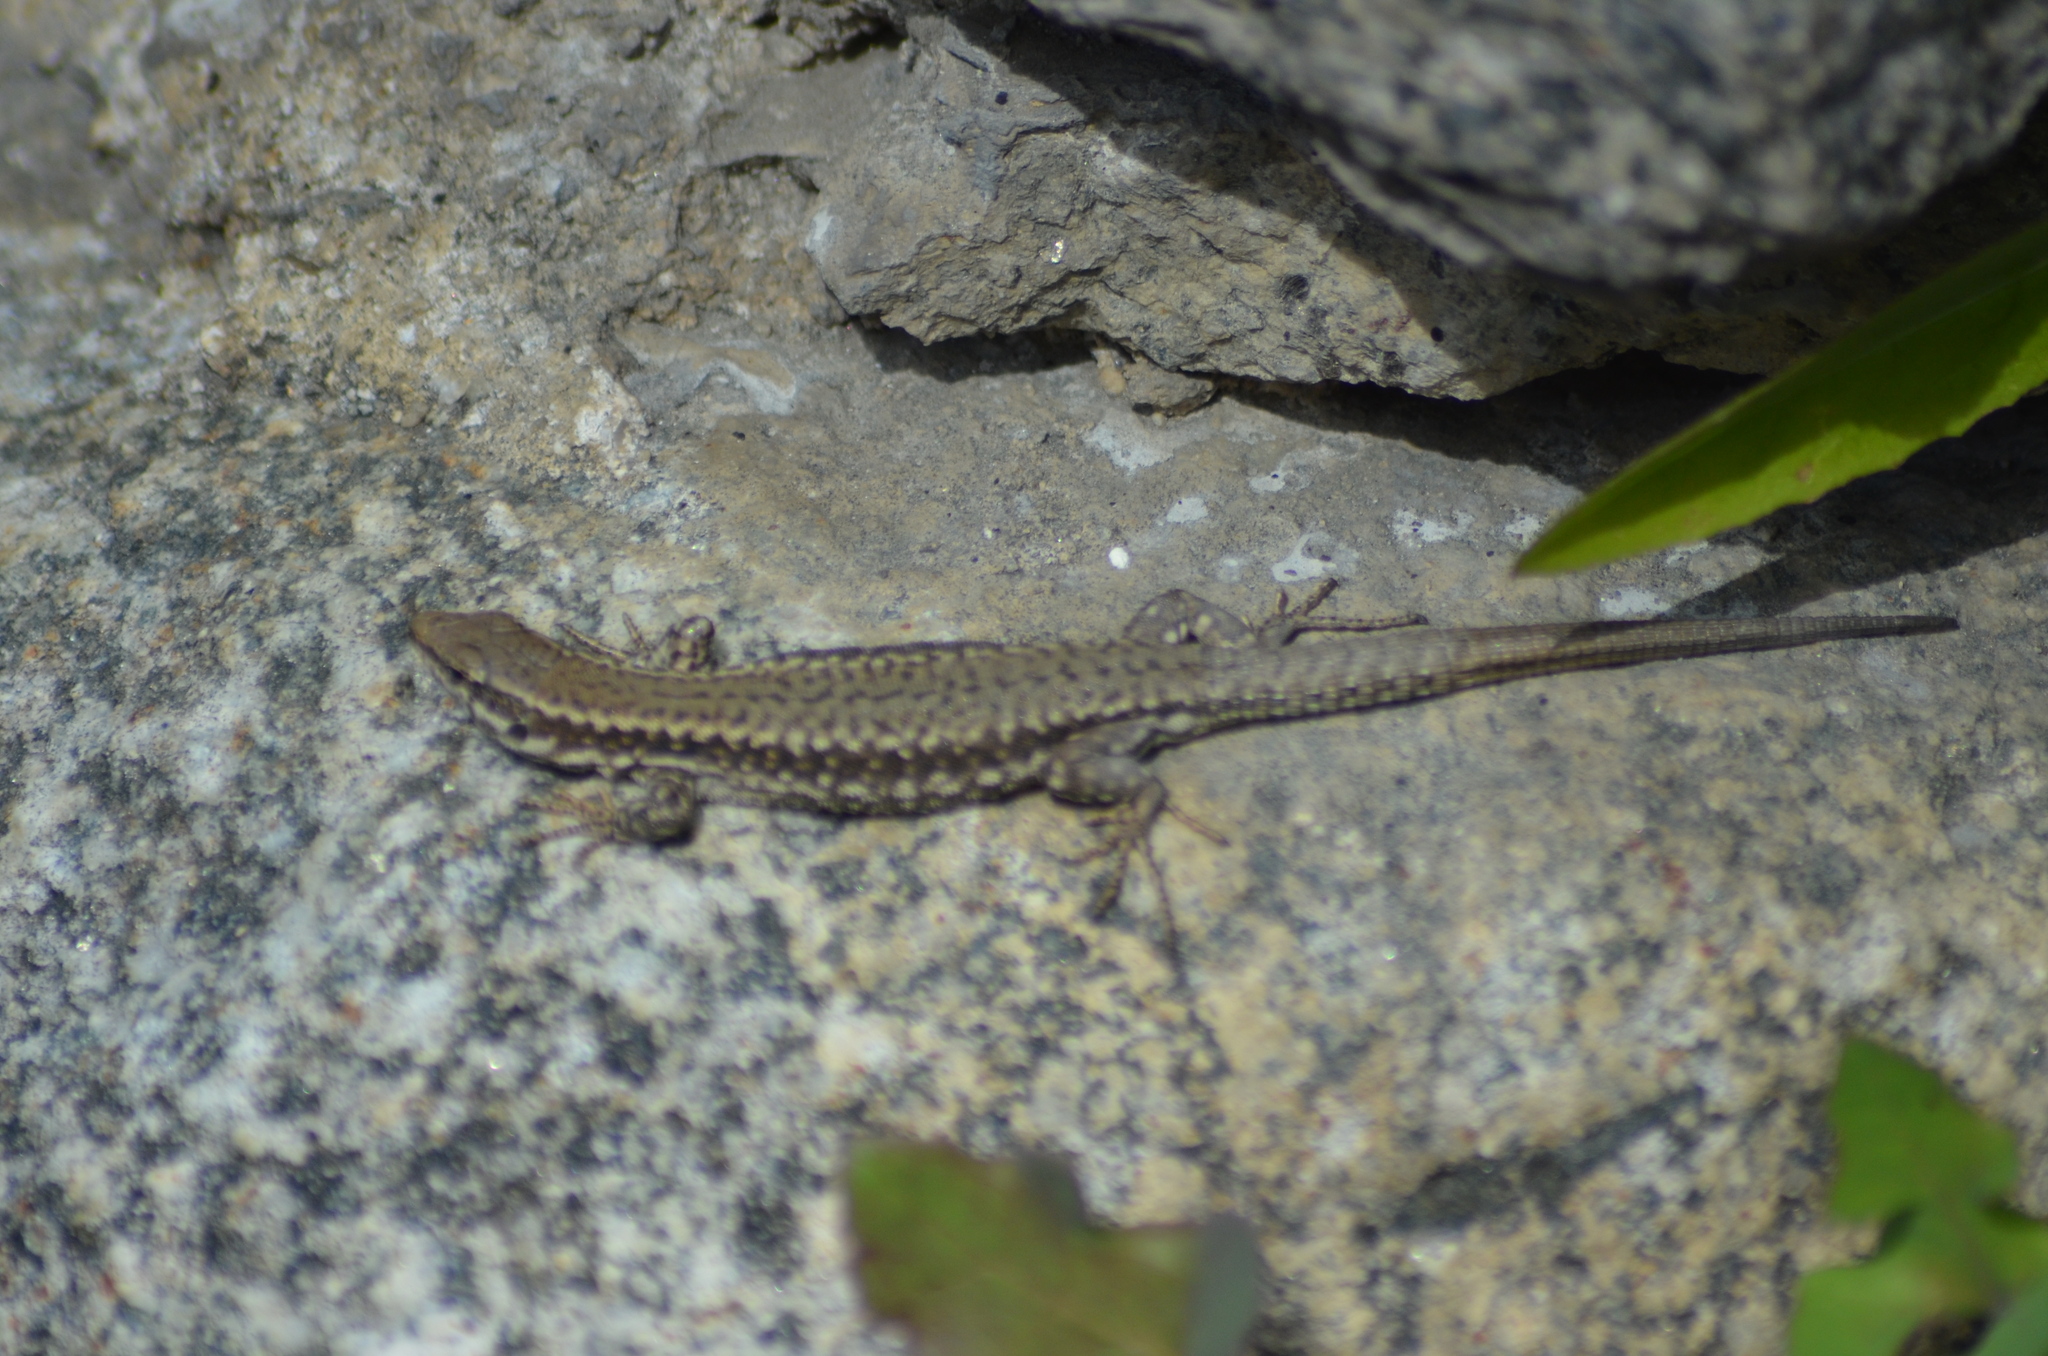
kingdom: Animalia
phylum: Chordata
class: Squamata
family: Lacertidae
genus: Podarcis
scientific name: Podarcis muralis
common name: Common wall lizard
